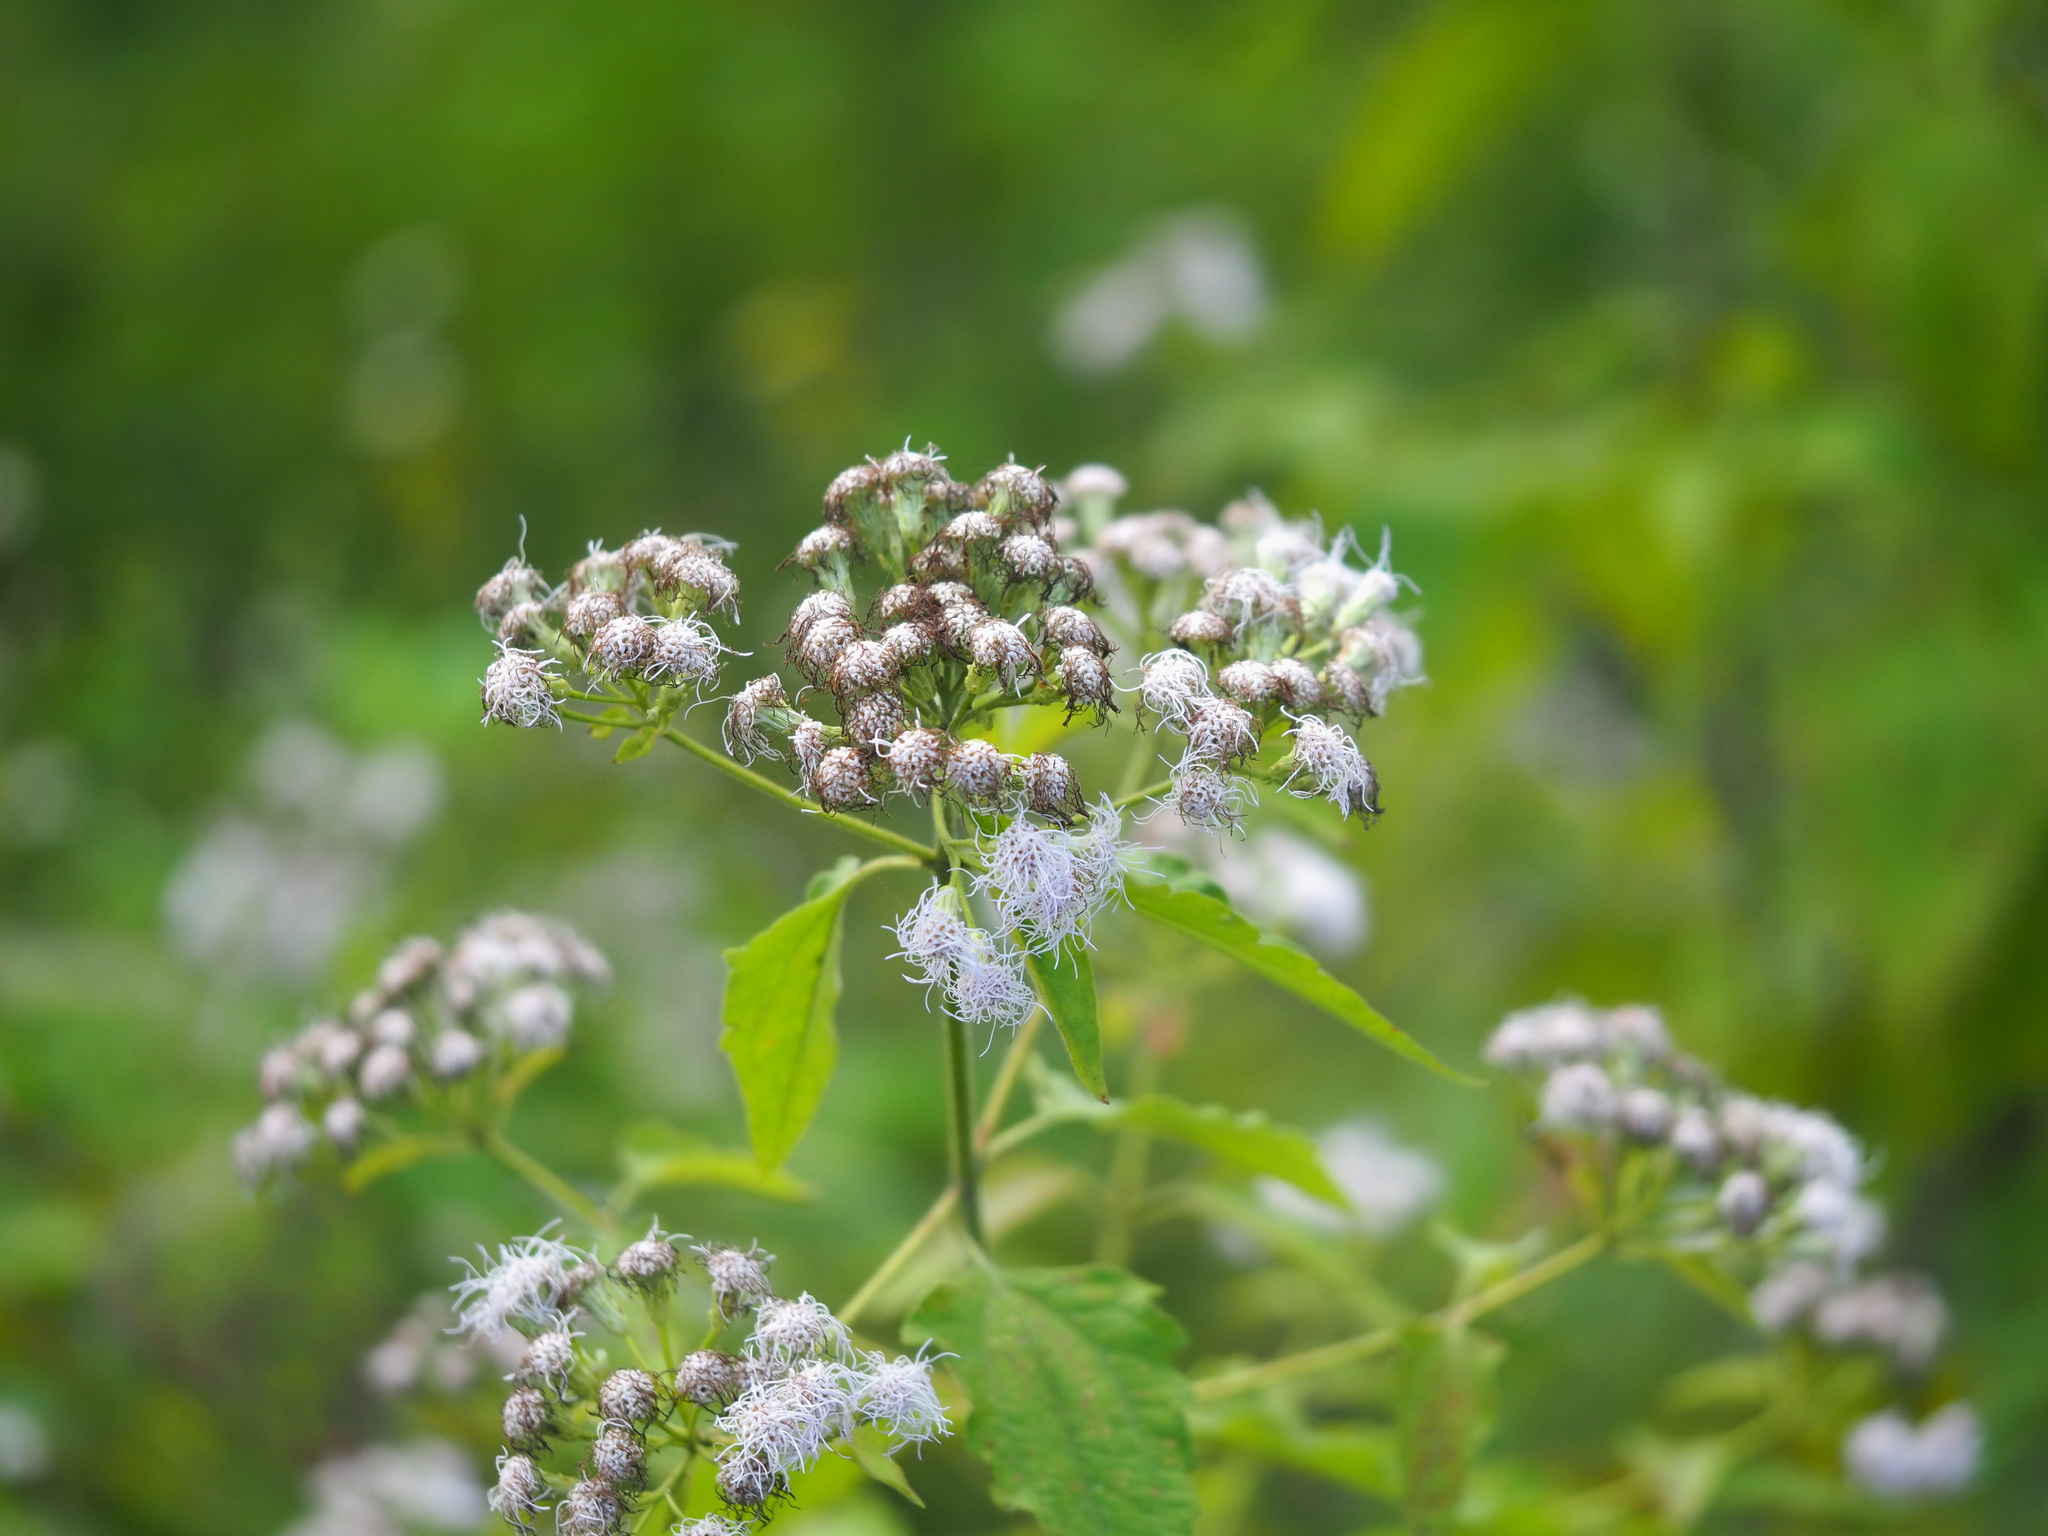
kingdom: Plantae
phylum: Tracheophyta
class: Magnoliopsida
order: Asterales
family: Asteraceae
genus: Chromolaena
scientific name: Chromolaena odorata
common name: Siamweed
